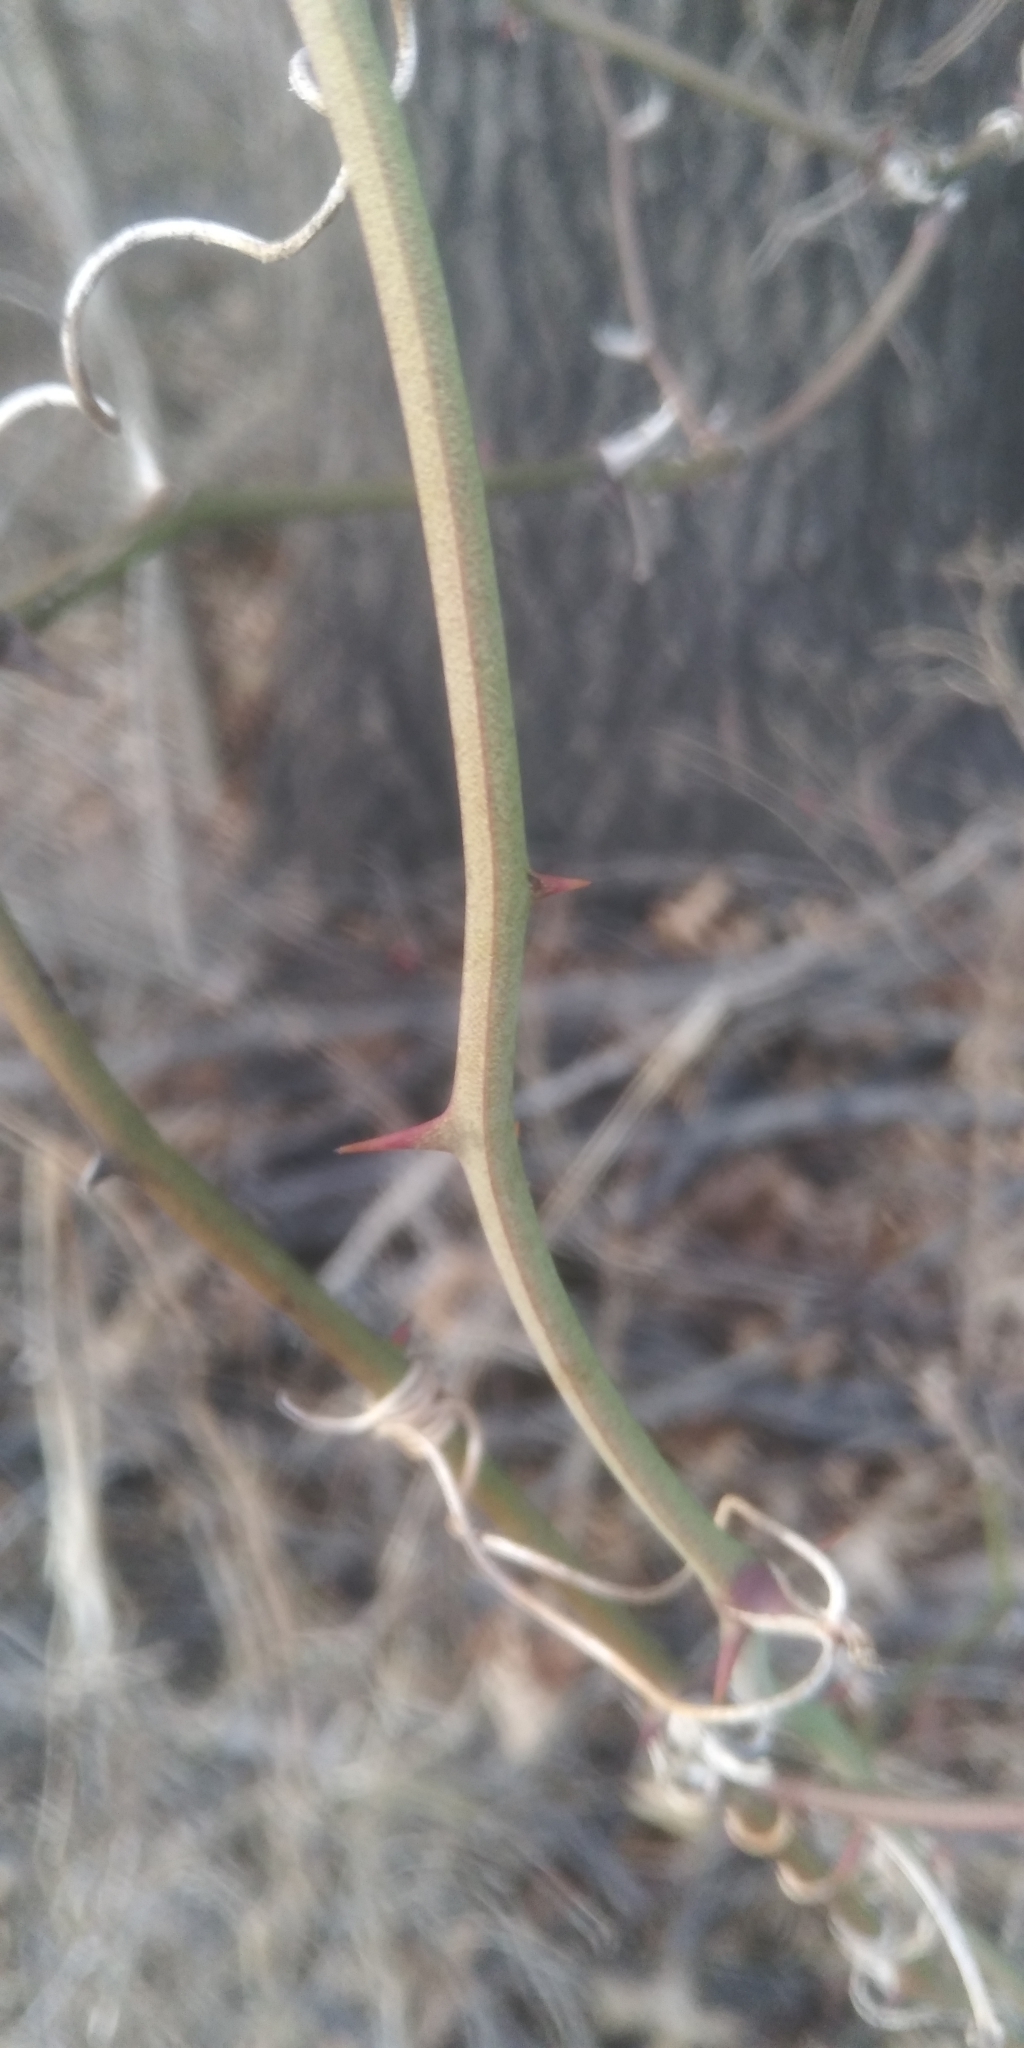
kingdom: Plantae
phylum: Tracheophyta
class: Liliopsida
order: Liliales
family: Smilacaceae
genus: Smilax
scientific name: Smilax rotundifolia
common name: Bullbriar
